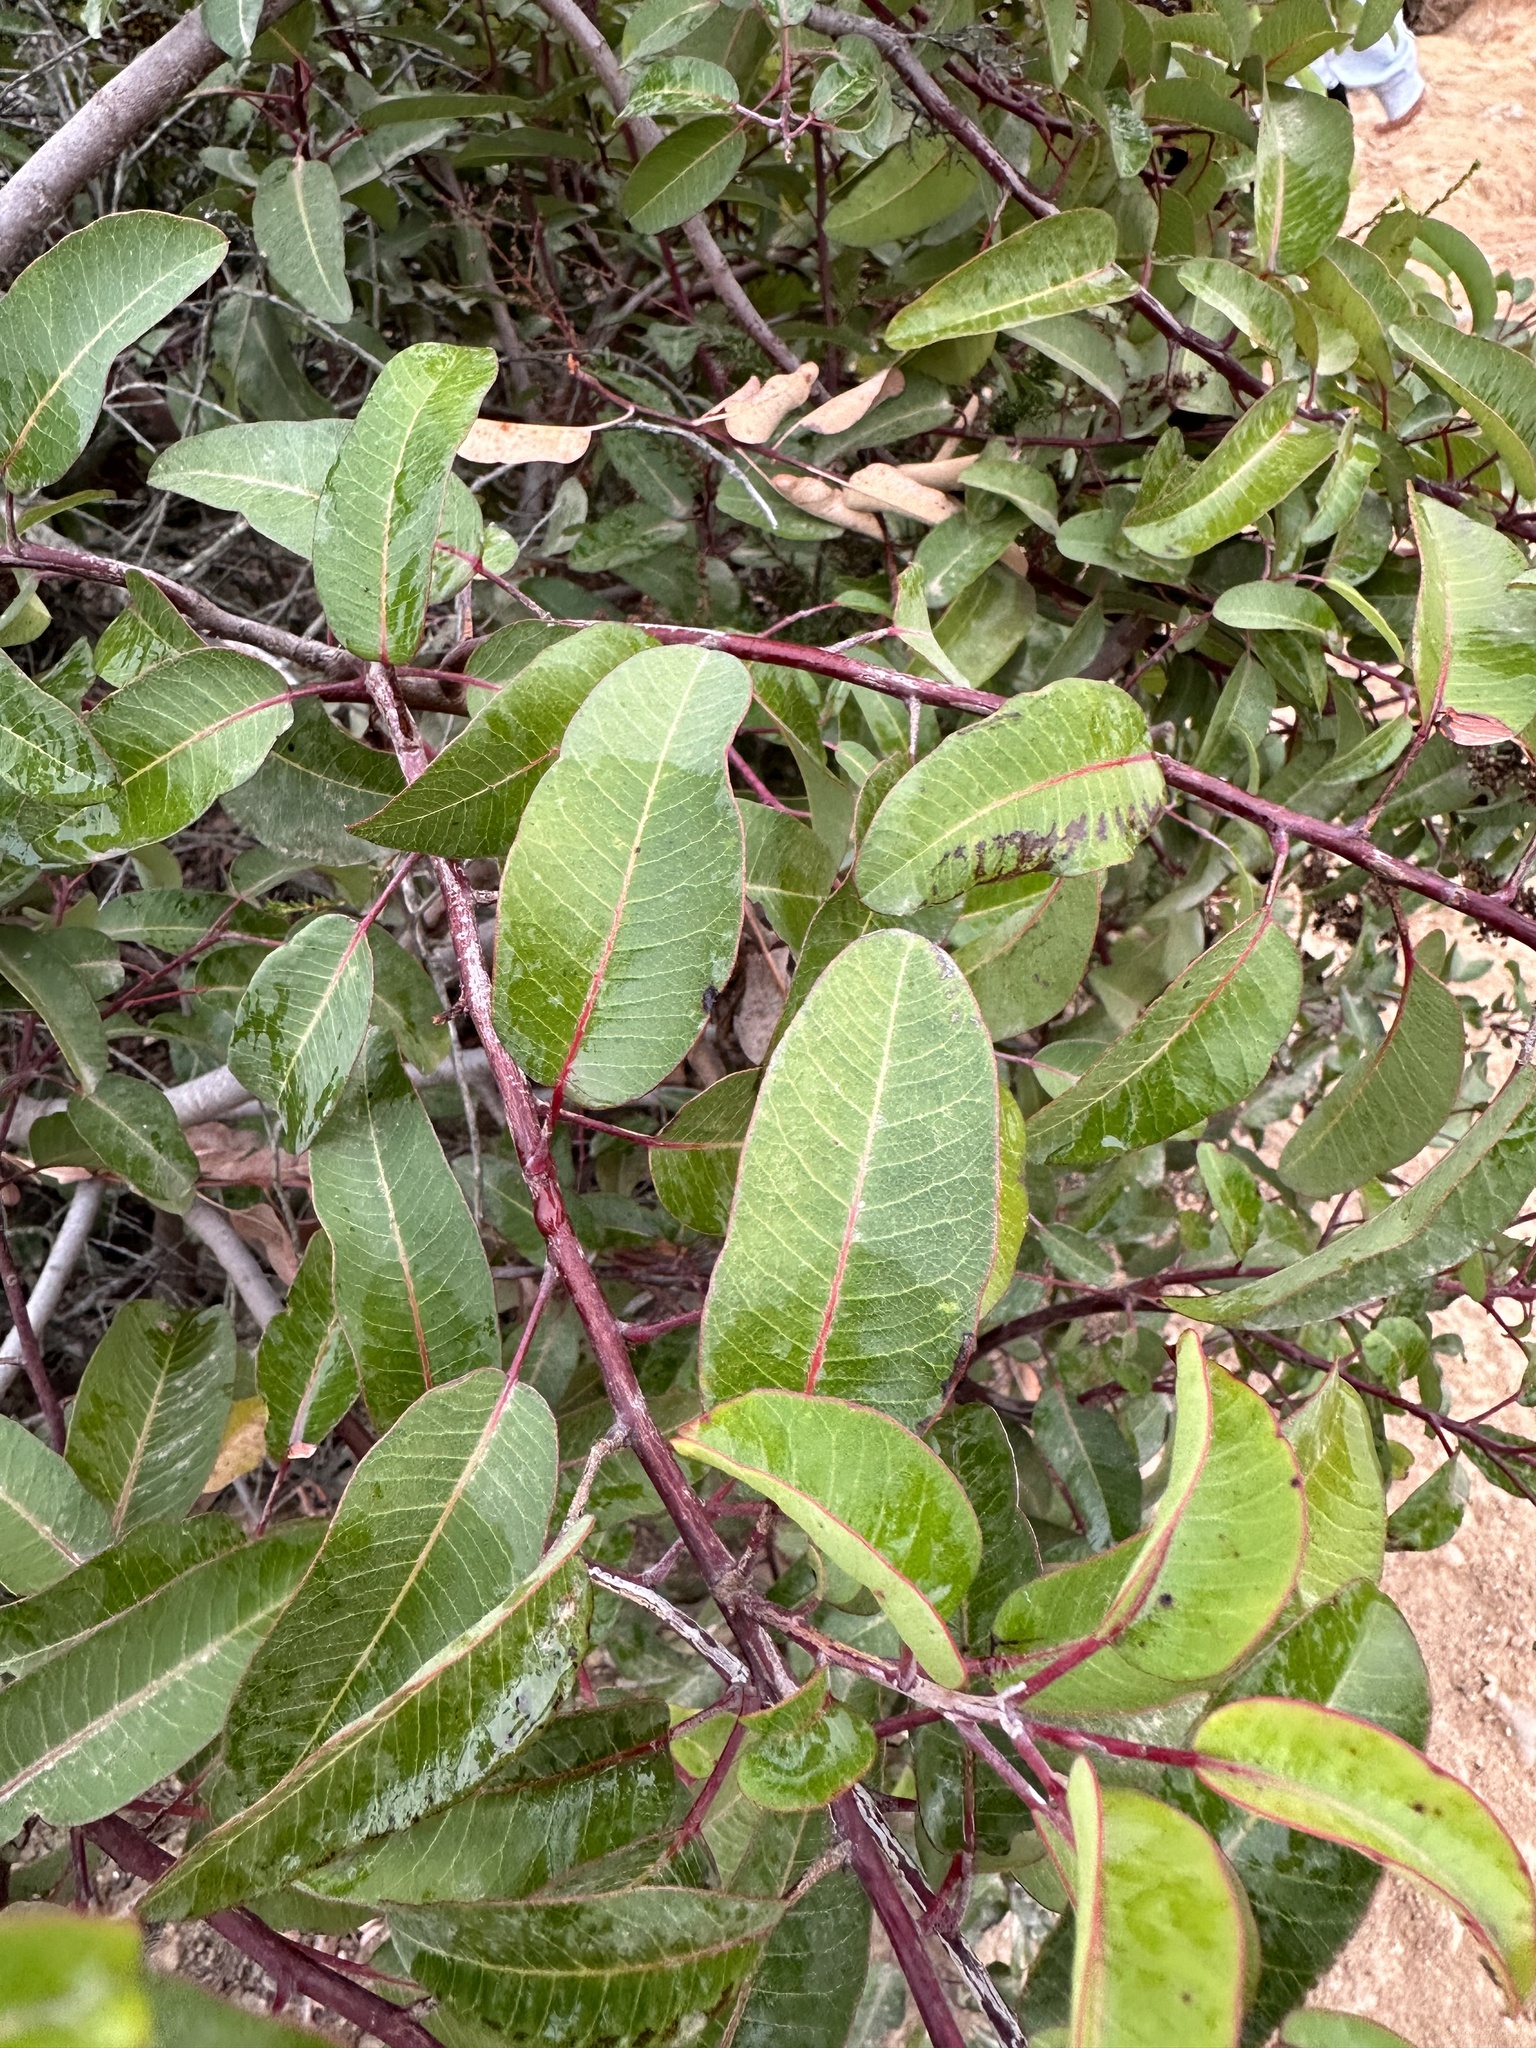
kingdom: Plantae
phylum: Tracheophyta
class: Magnoliopsida
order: Sapindales
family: Anacardiaceae
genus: Malosma
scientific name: Malosma laurina
